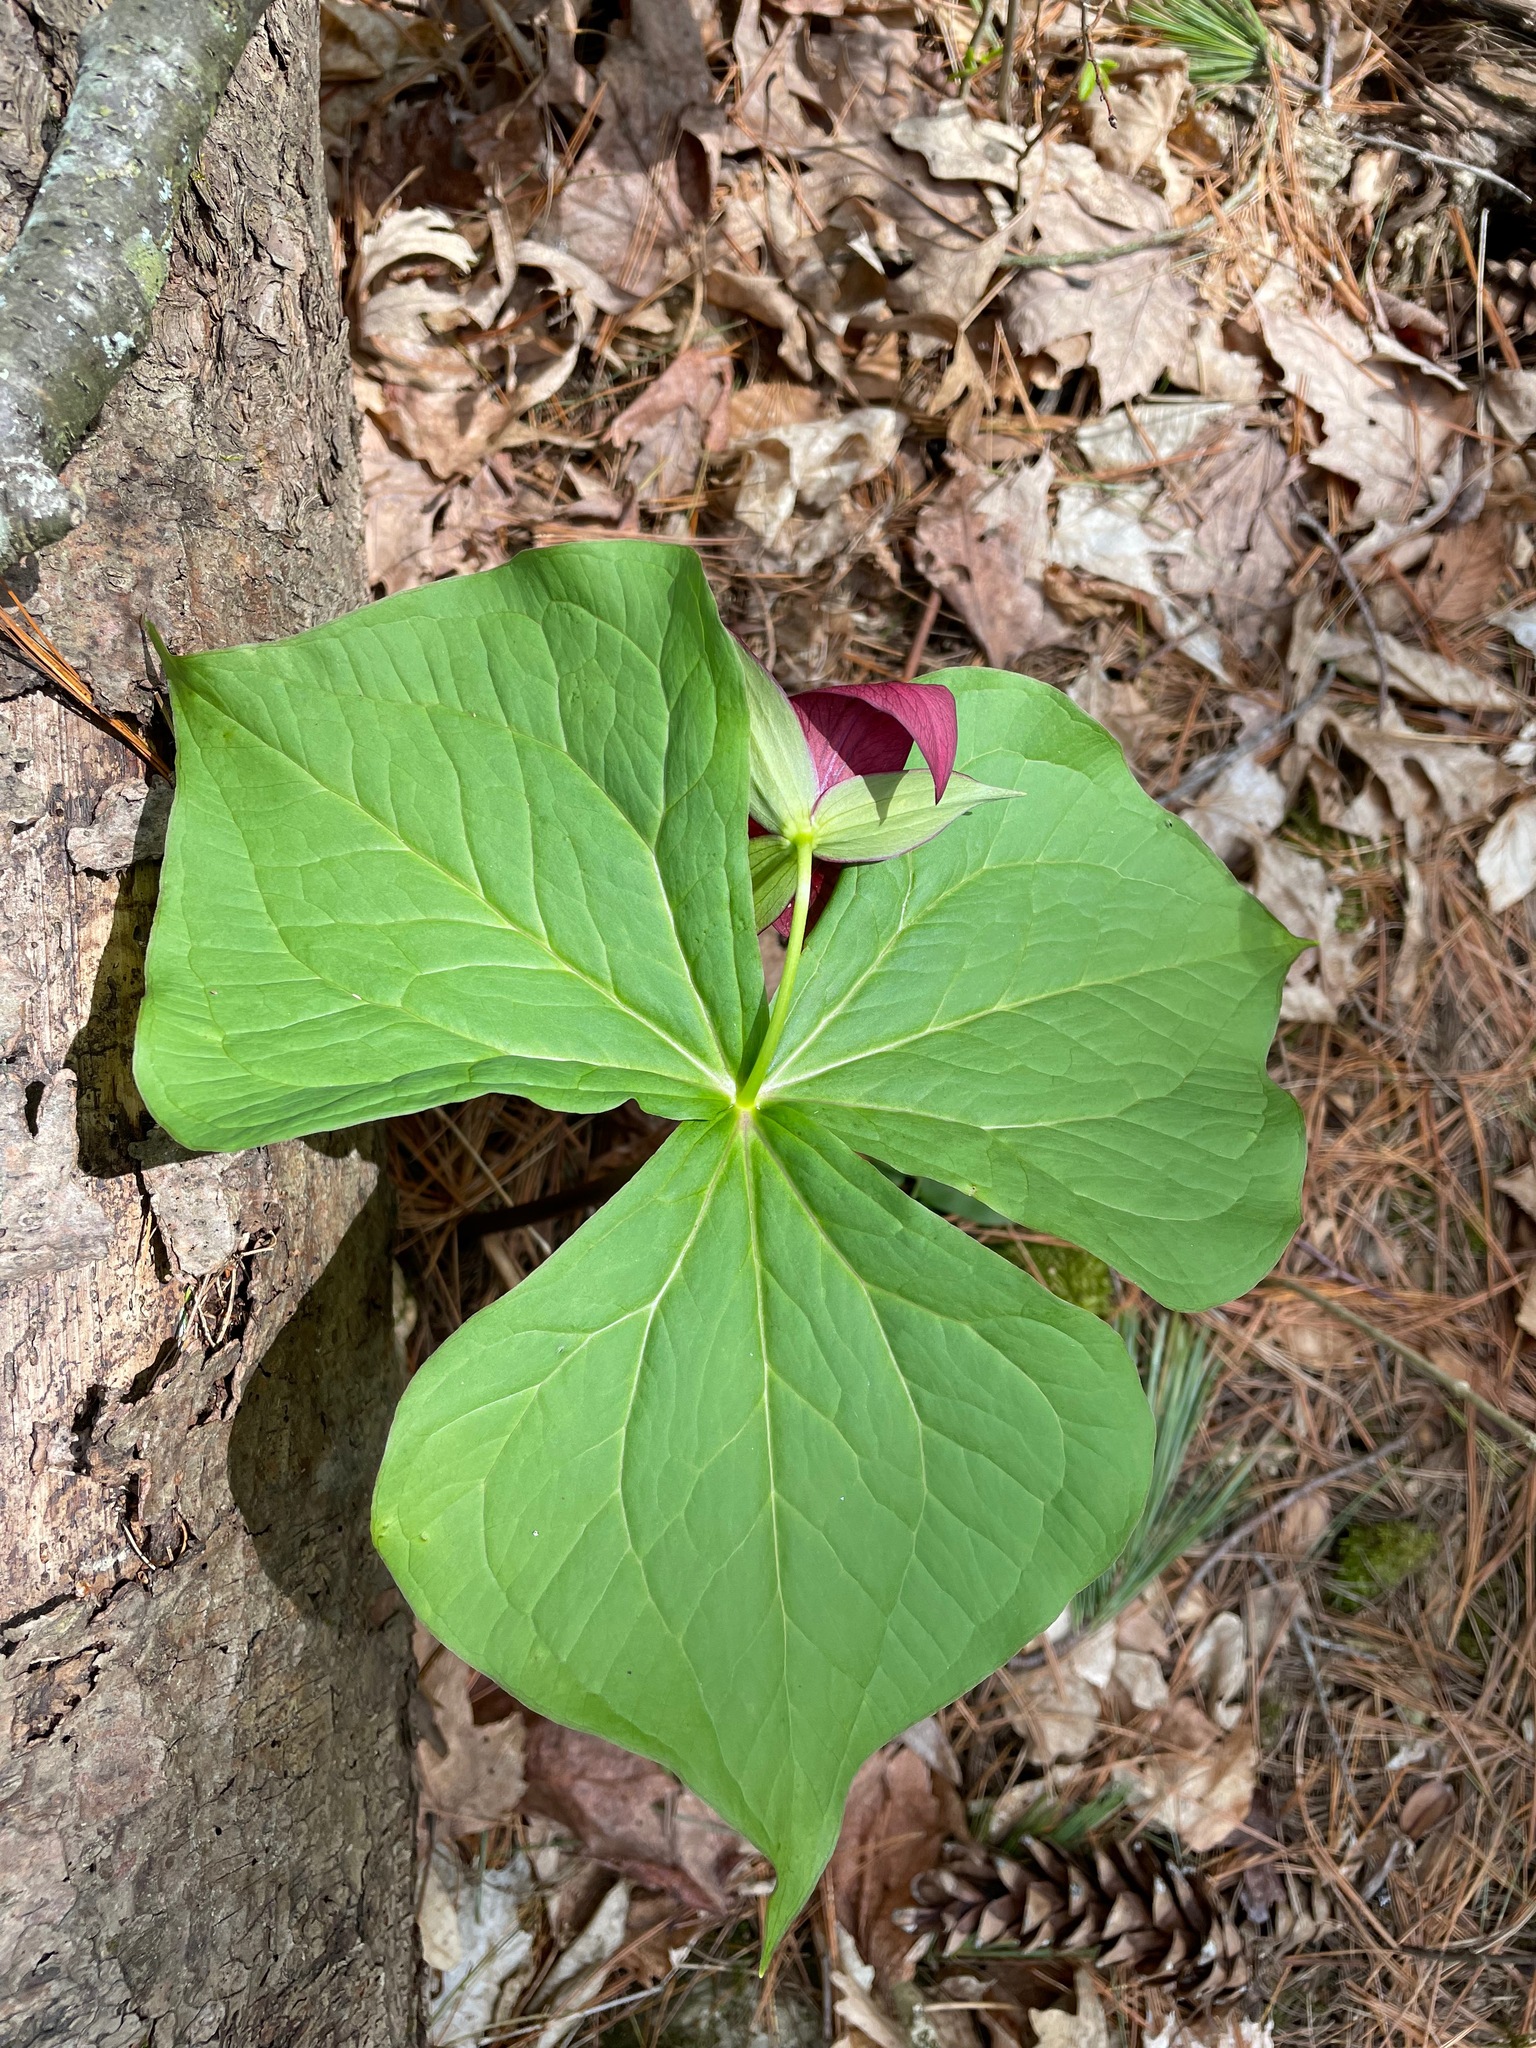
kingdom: Plantae
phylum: Tracheophyta
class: Liliopsida
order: Liliales
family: Melanthiaceae
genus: Trillium
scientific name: Trillium erectum
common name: Purple trillium
